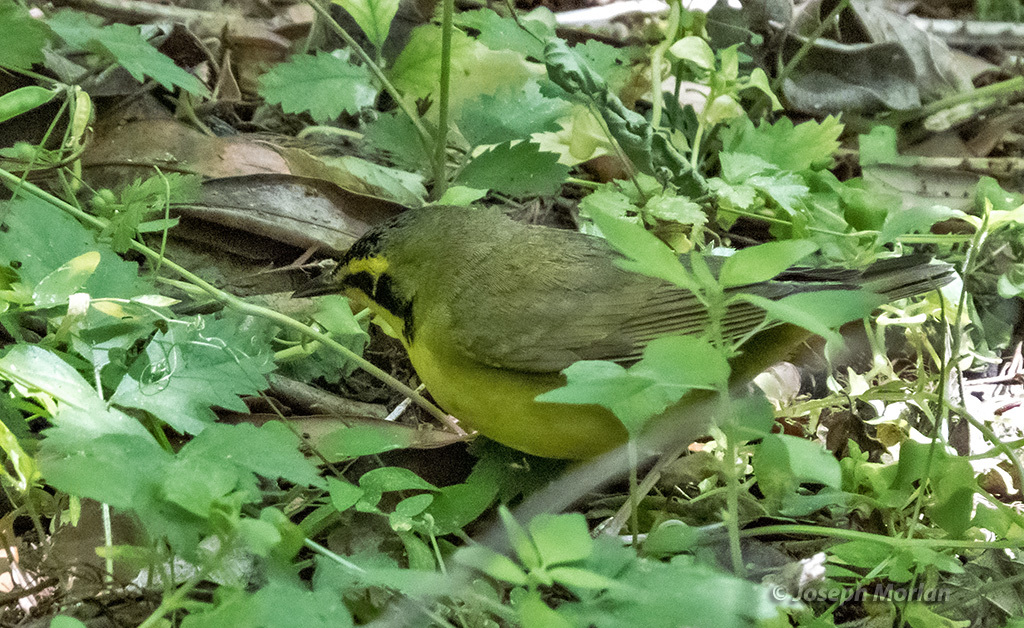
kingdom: Animalia
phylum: Chordata
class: Aves
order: Passeriformes
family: Parulidae
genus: Geothlypis
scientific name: Geothlypis formosa
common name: Kentucky warbler
